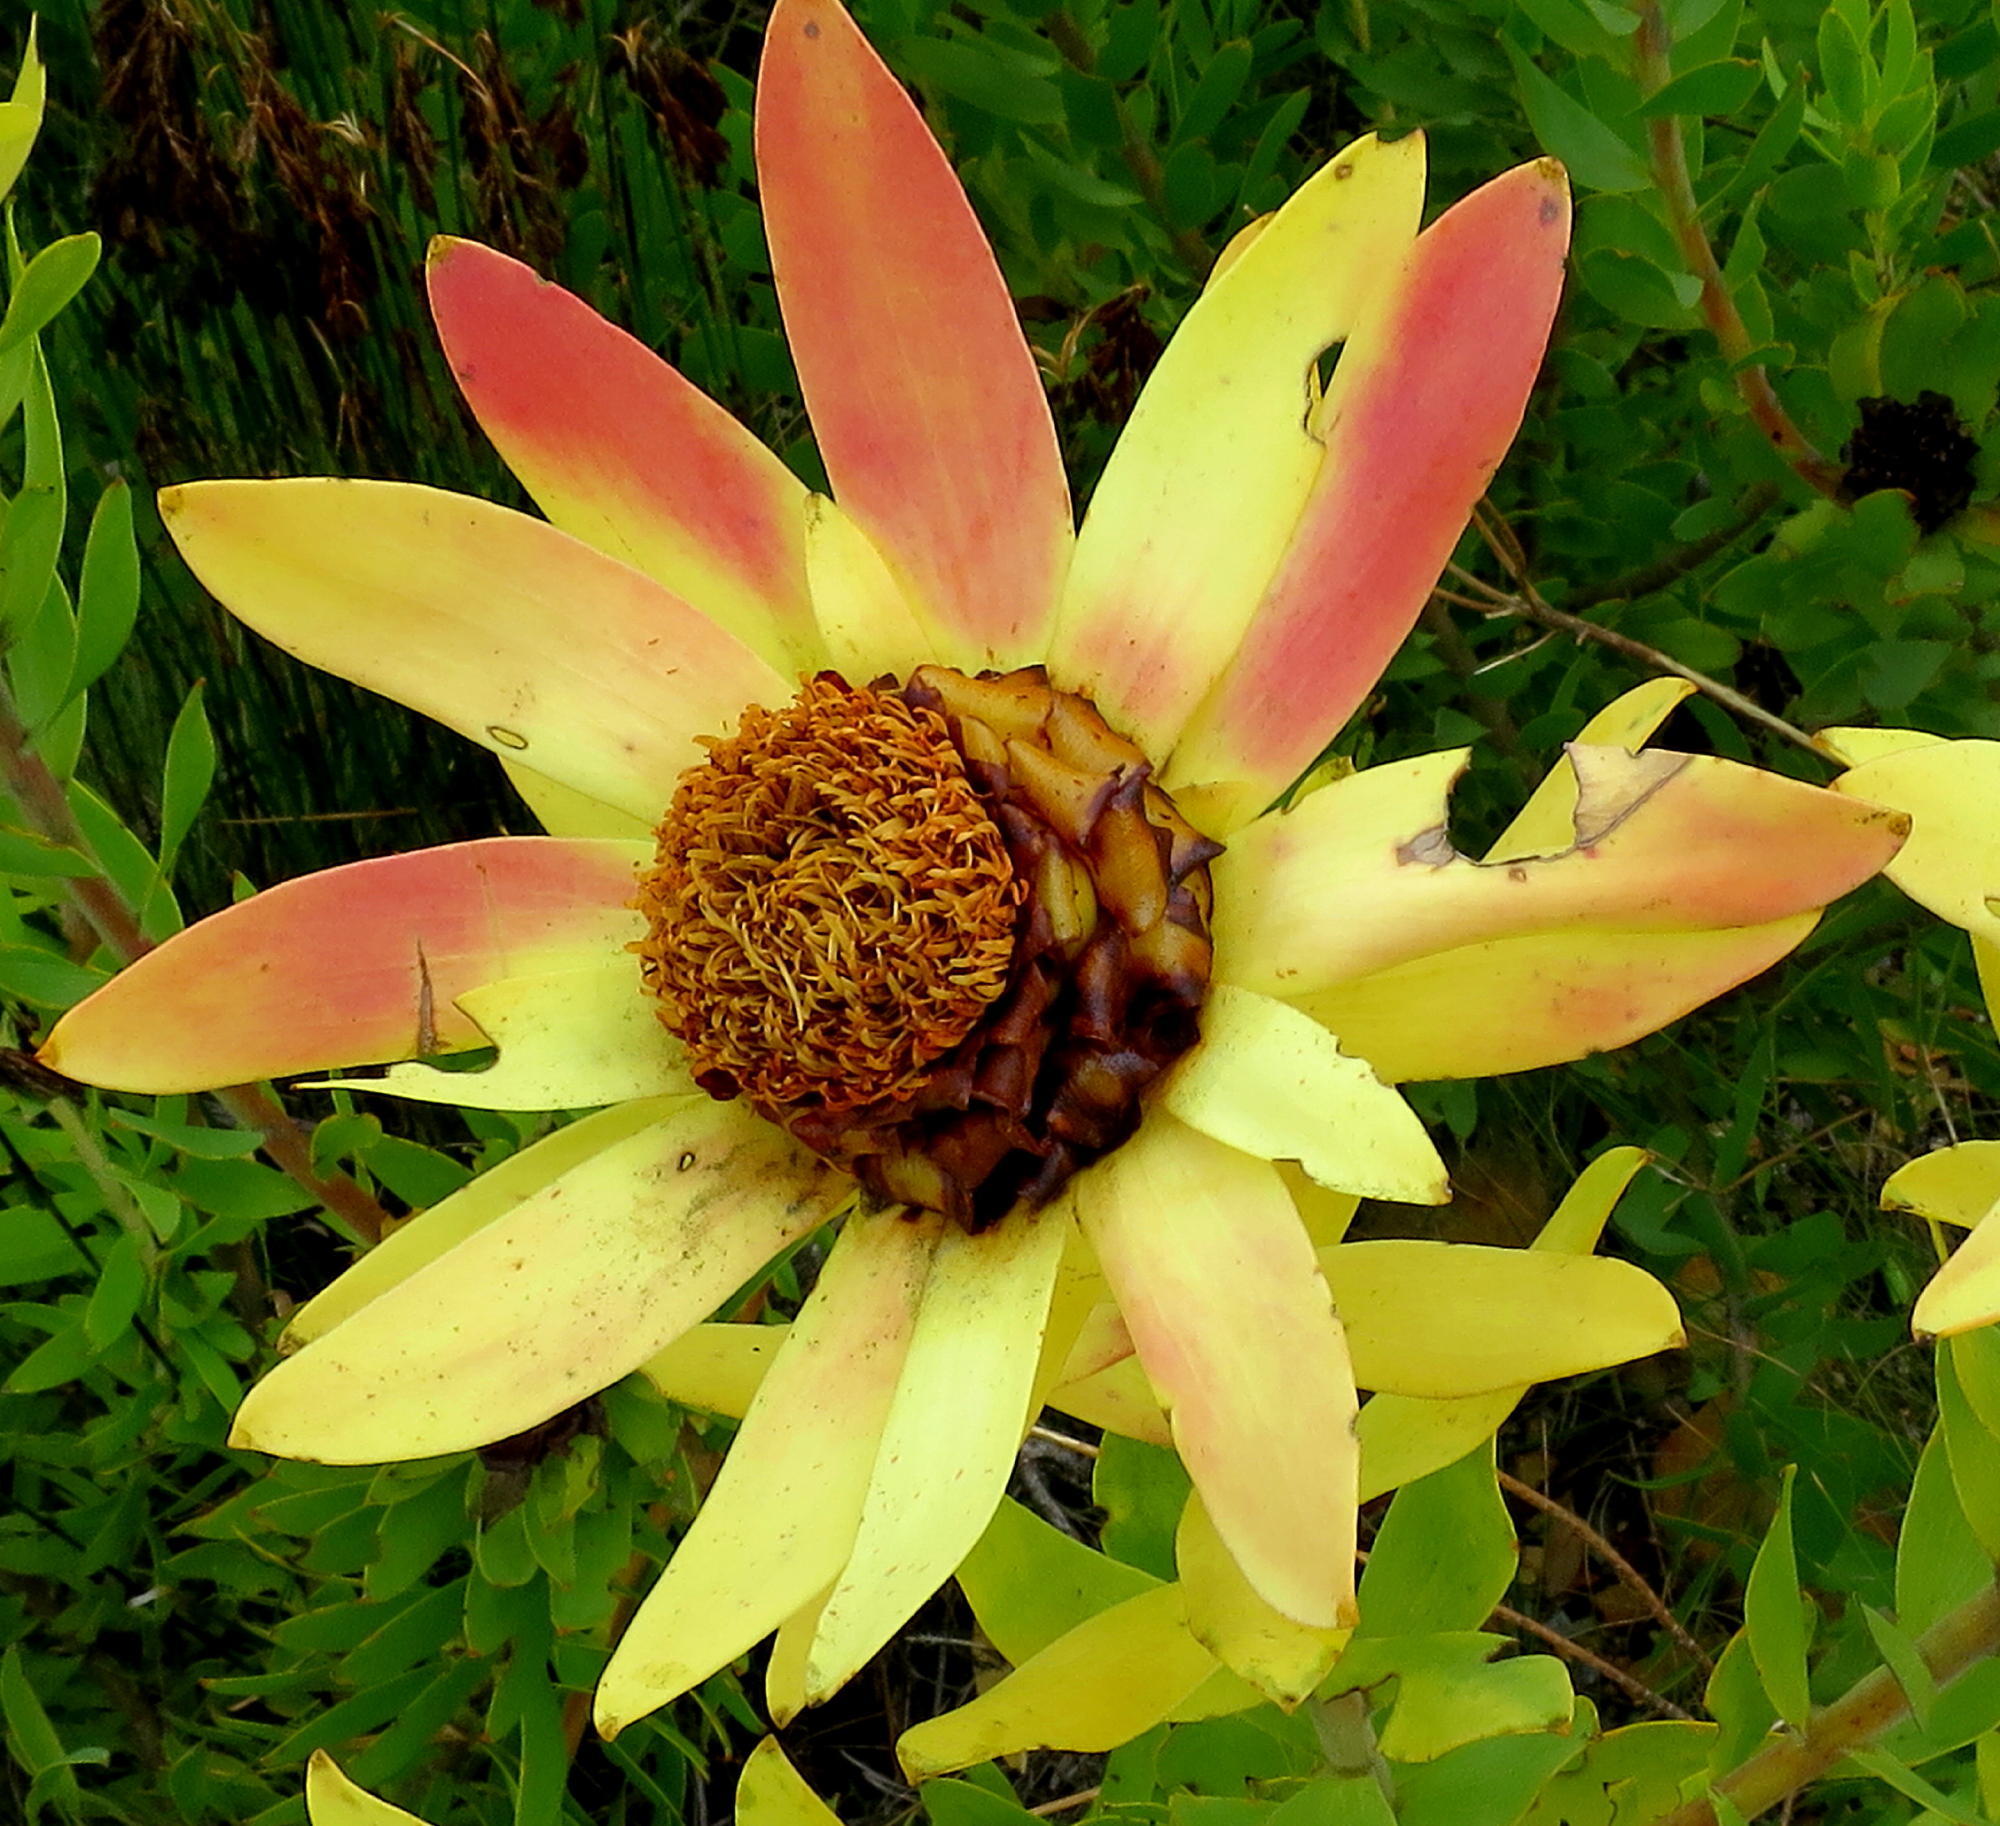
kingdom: Plantae
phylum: Tracheophyta
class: Magnoliopsida
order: Proteales
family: Proteaceae
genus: Leucadendron
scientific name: Leucadendron tinctum
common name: Spicy conebush
